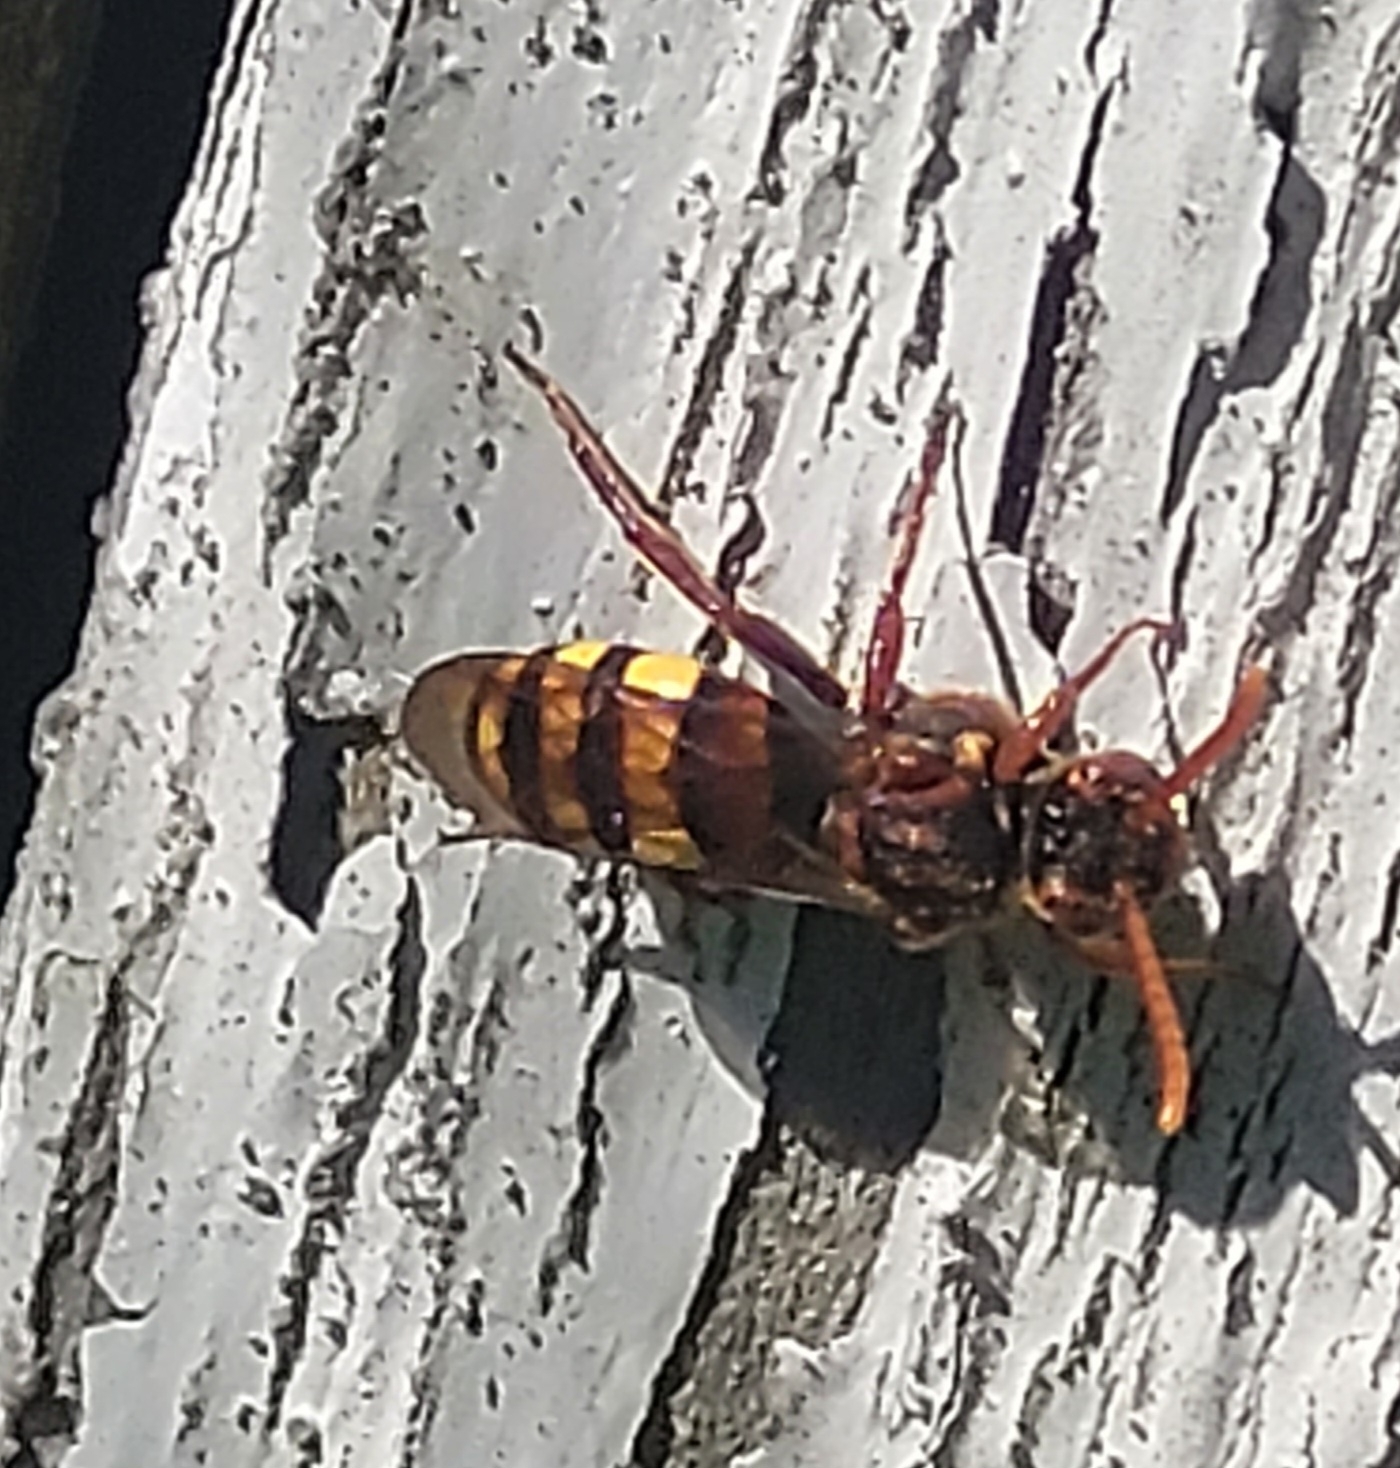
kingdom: Animalia
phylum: Arthropoda
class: Insecta
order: Hymenoptera
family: Apidae
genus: Nomada
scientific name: Nomada flava
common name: Flavous nomad bee
